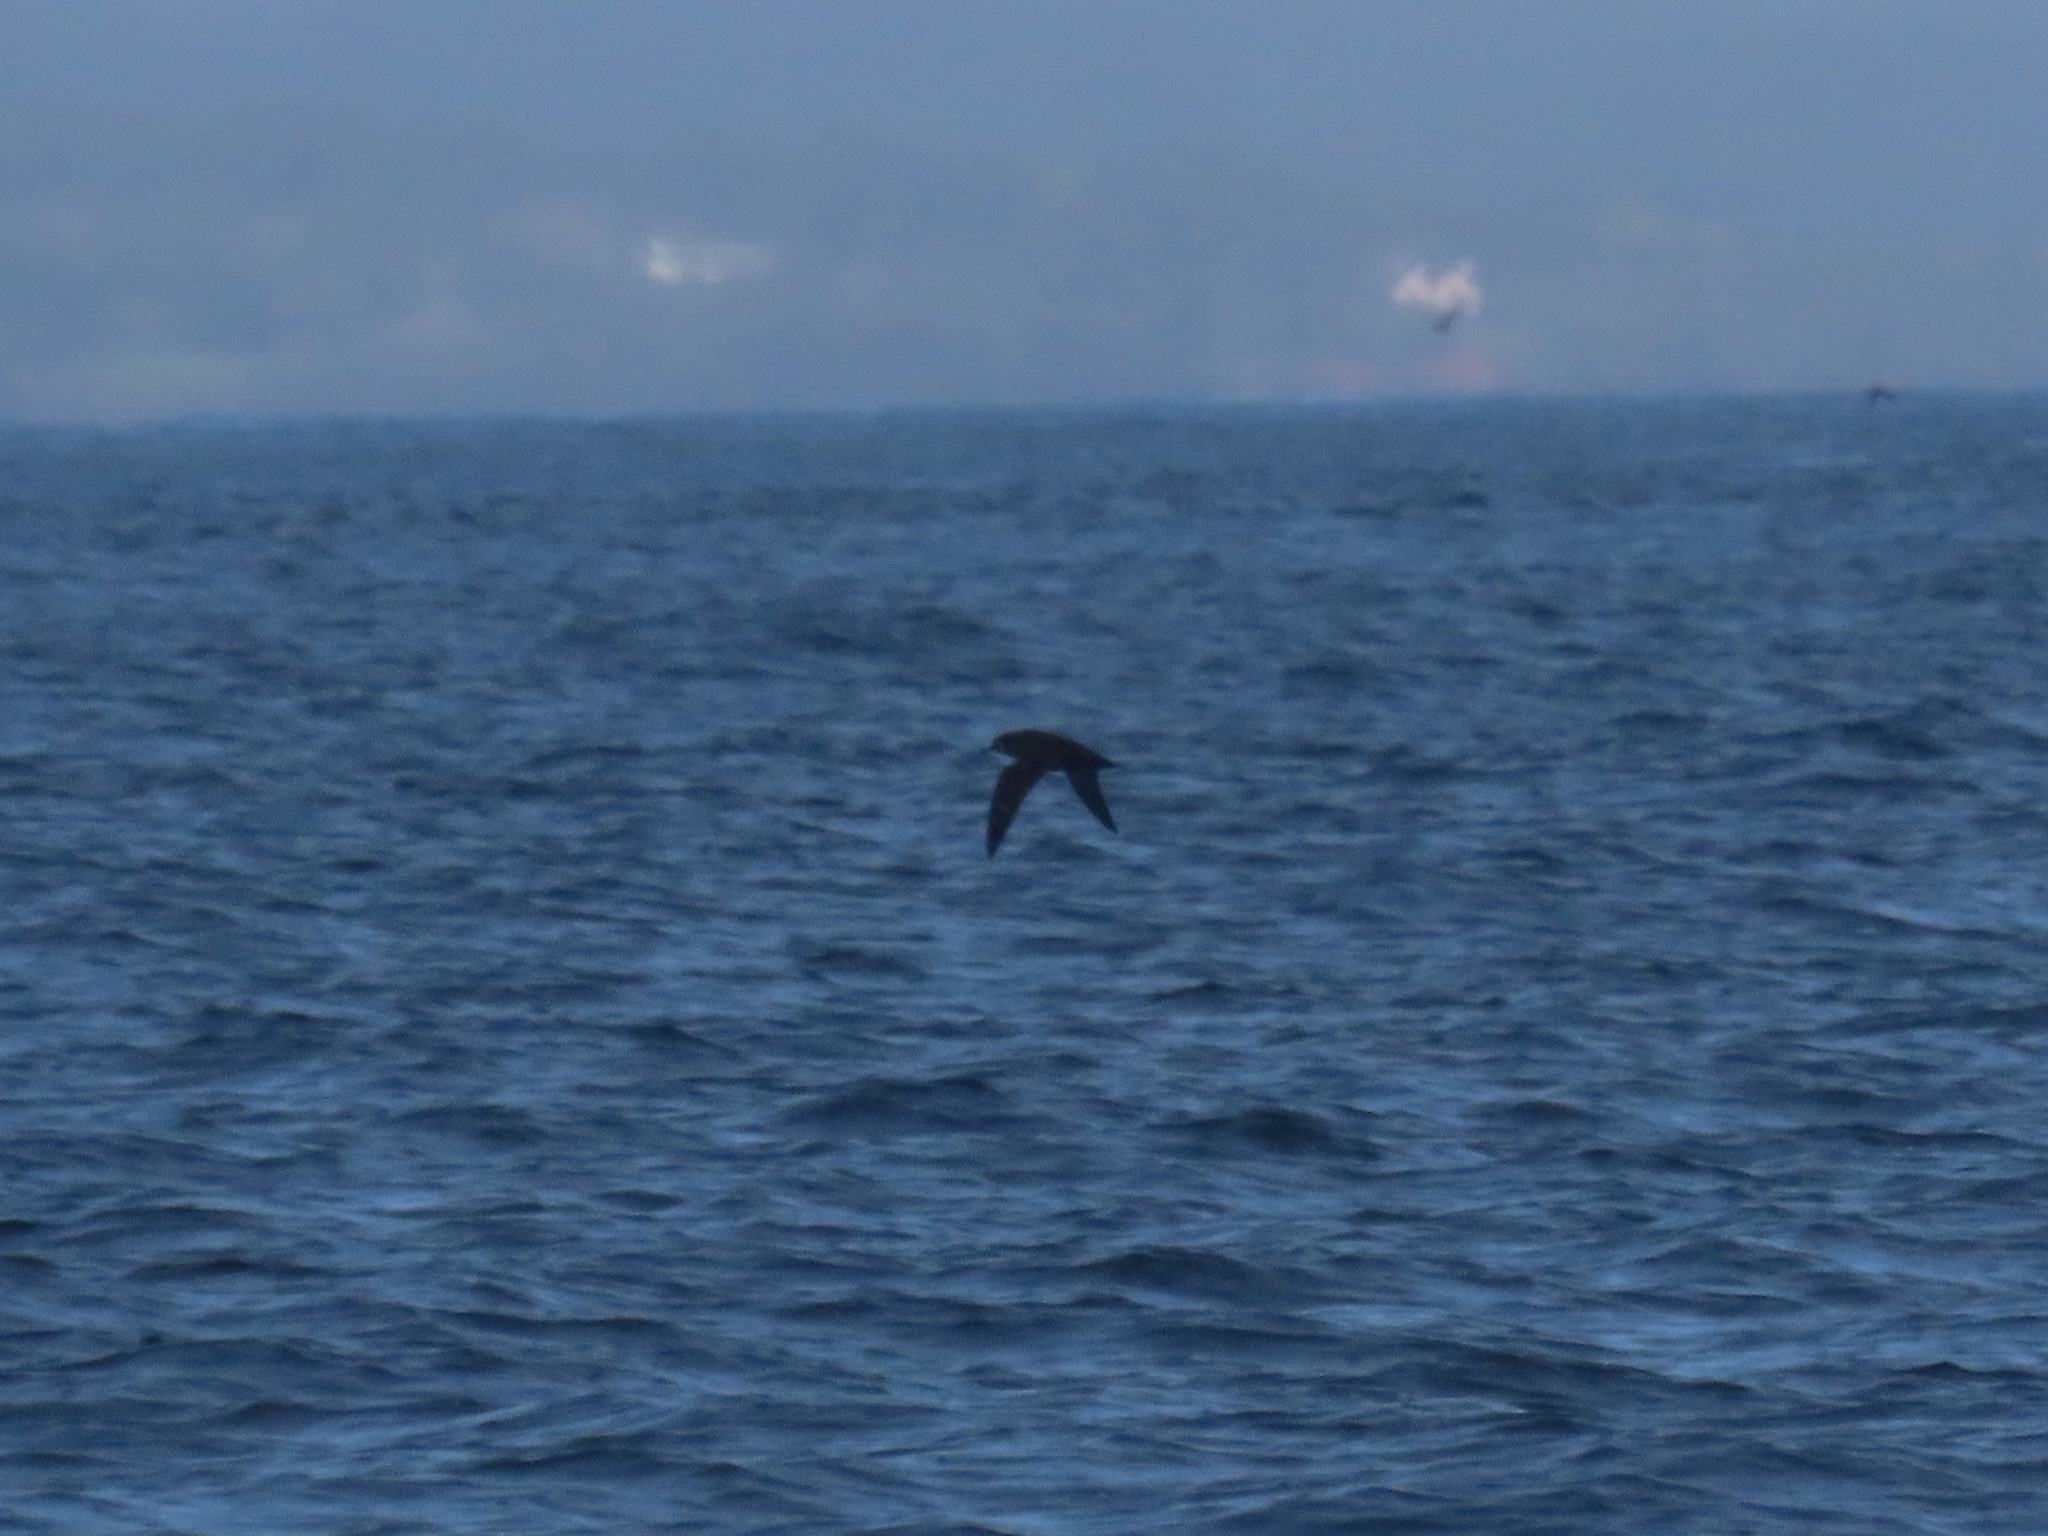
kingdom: Animalia
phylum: Chordata
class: Aves
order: Procellariiformes
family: Procellariidae
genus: Puffinus
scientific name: Puffinus tenuirostris
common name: Short-tailed shearwater
